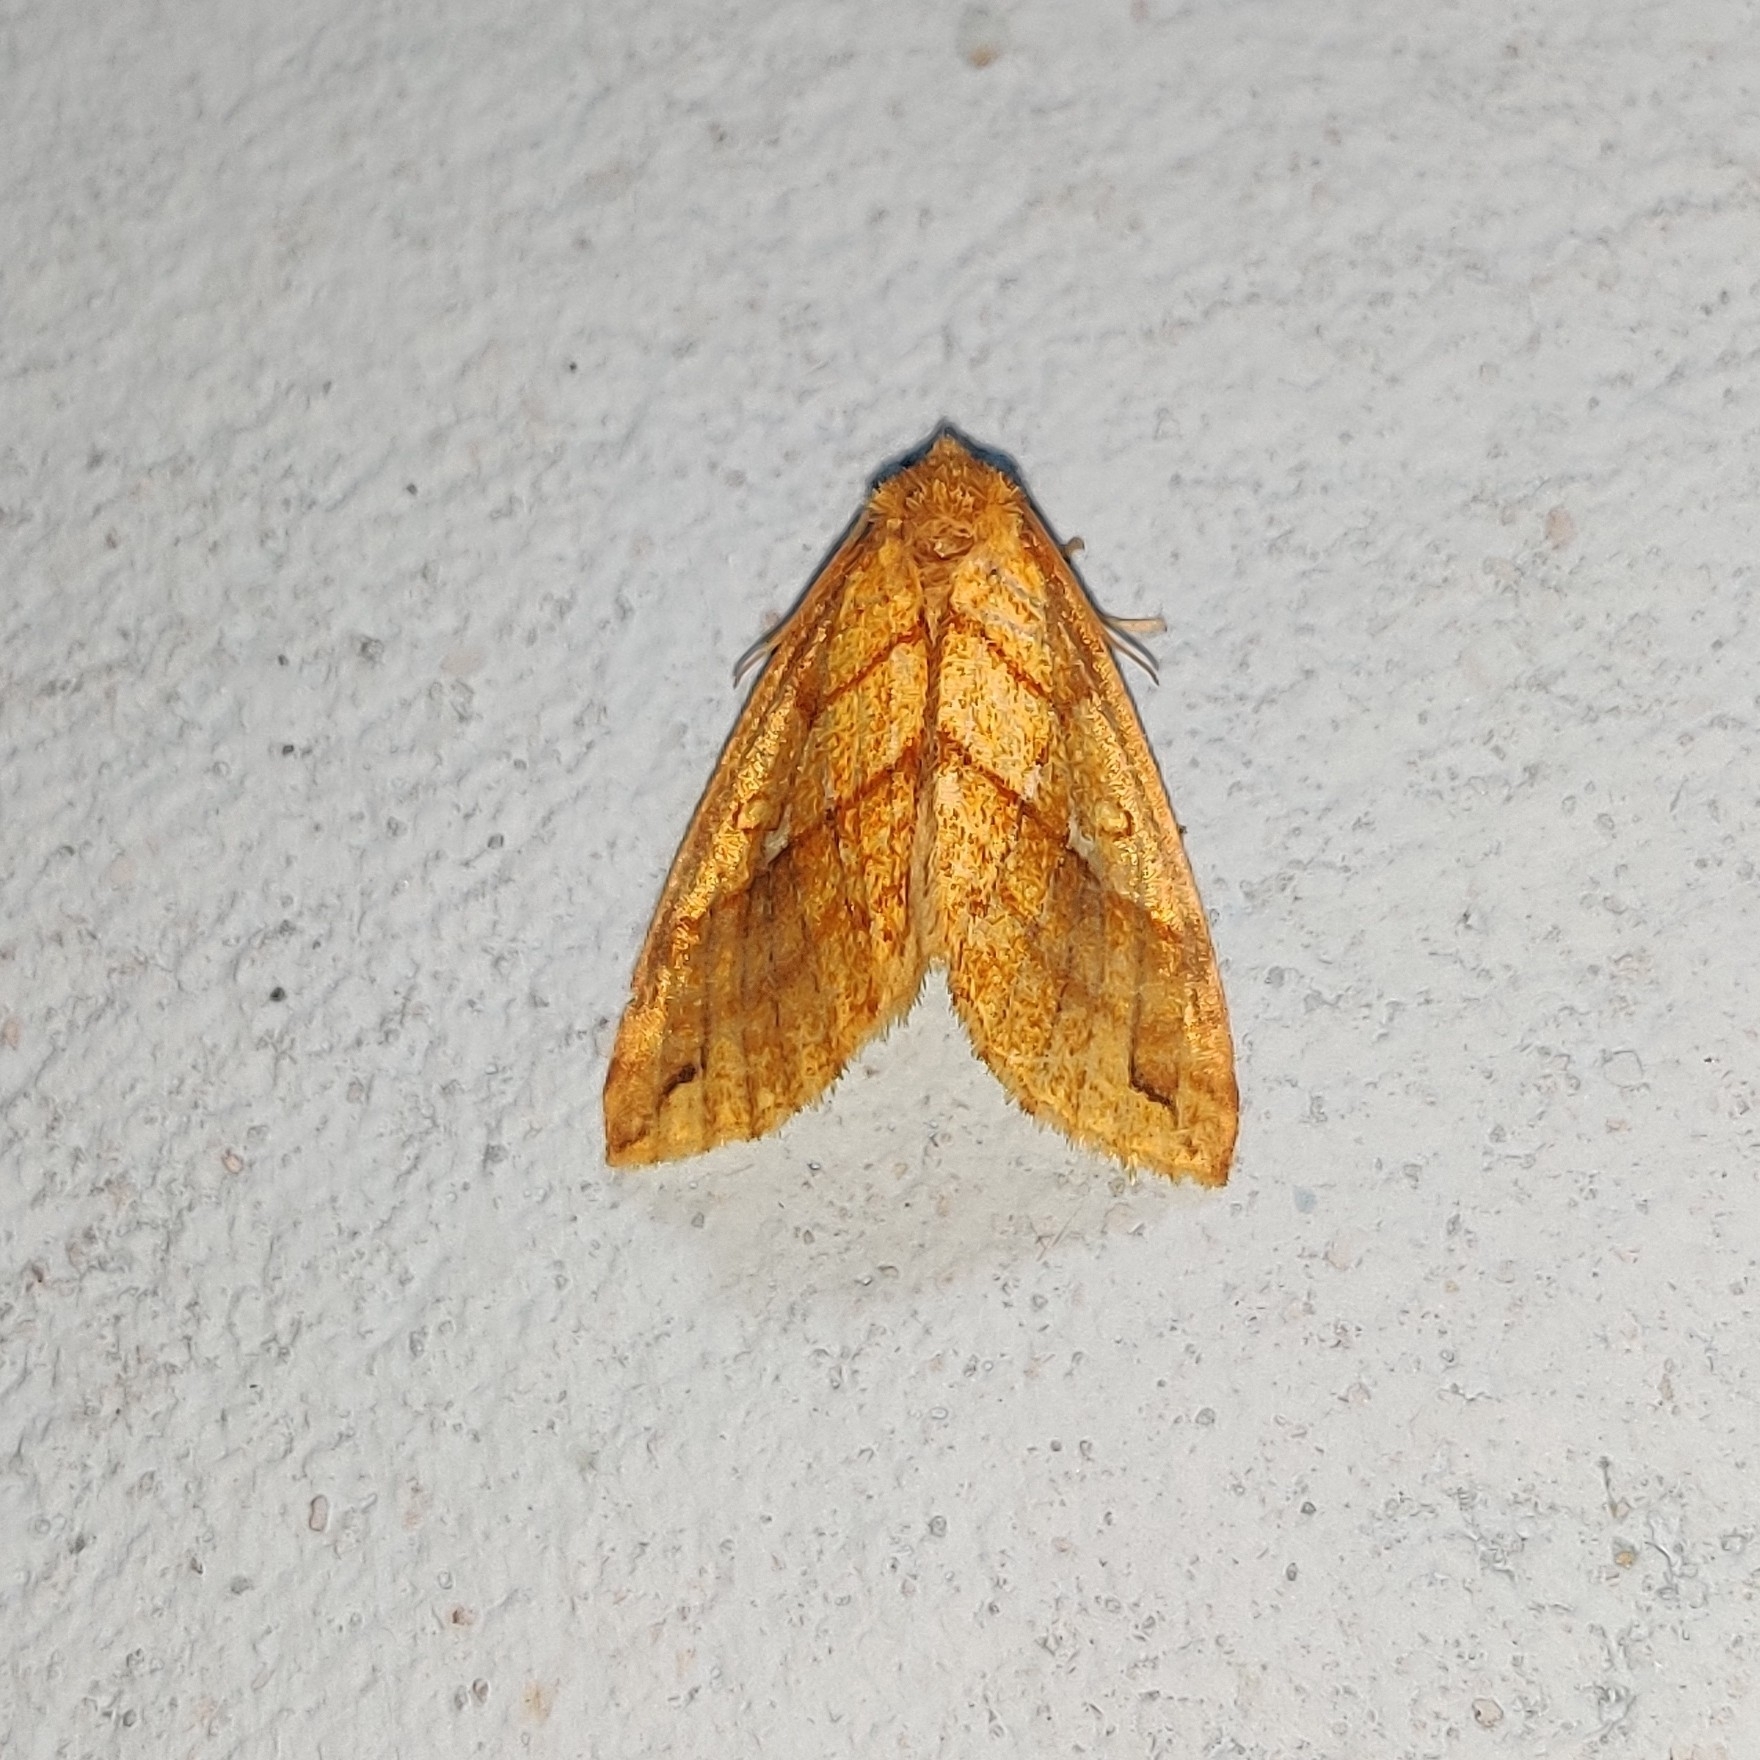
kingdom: Animalia
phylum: Arthropoda
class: Insecta
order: Lepidoptera
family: Noctuidae
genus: Xanthia
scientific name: Xanthia rectilineata
